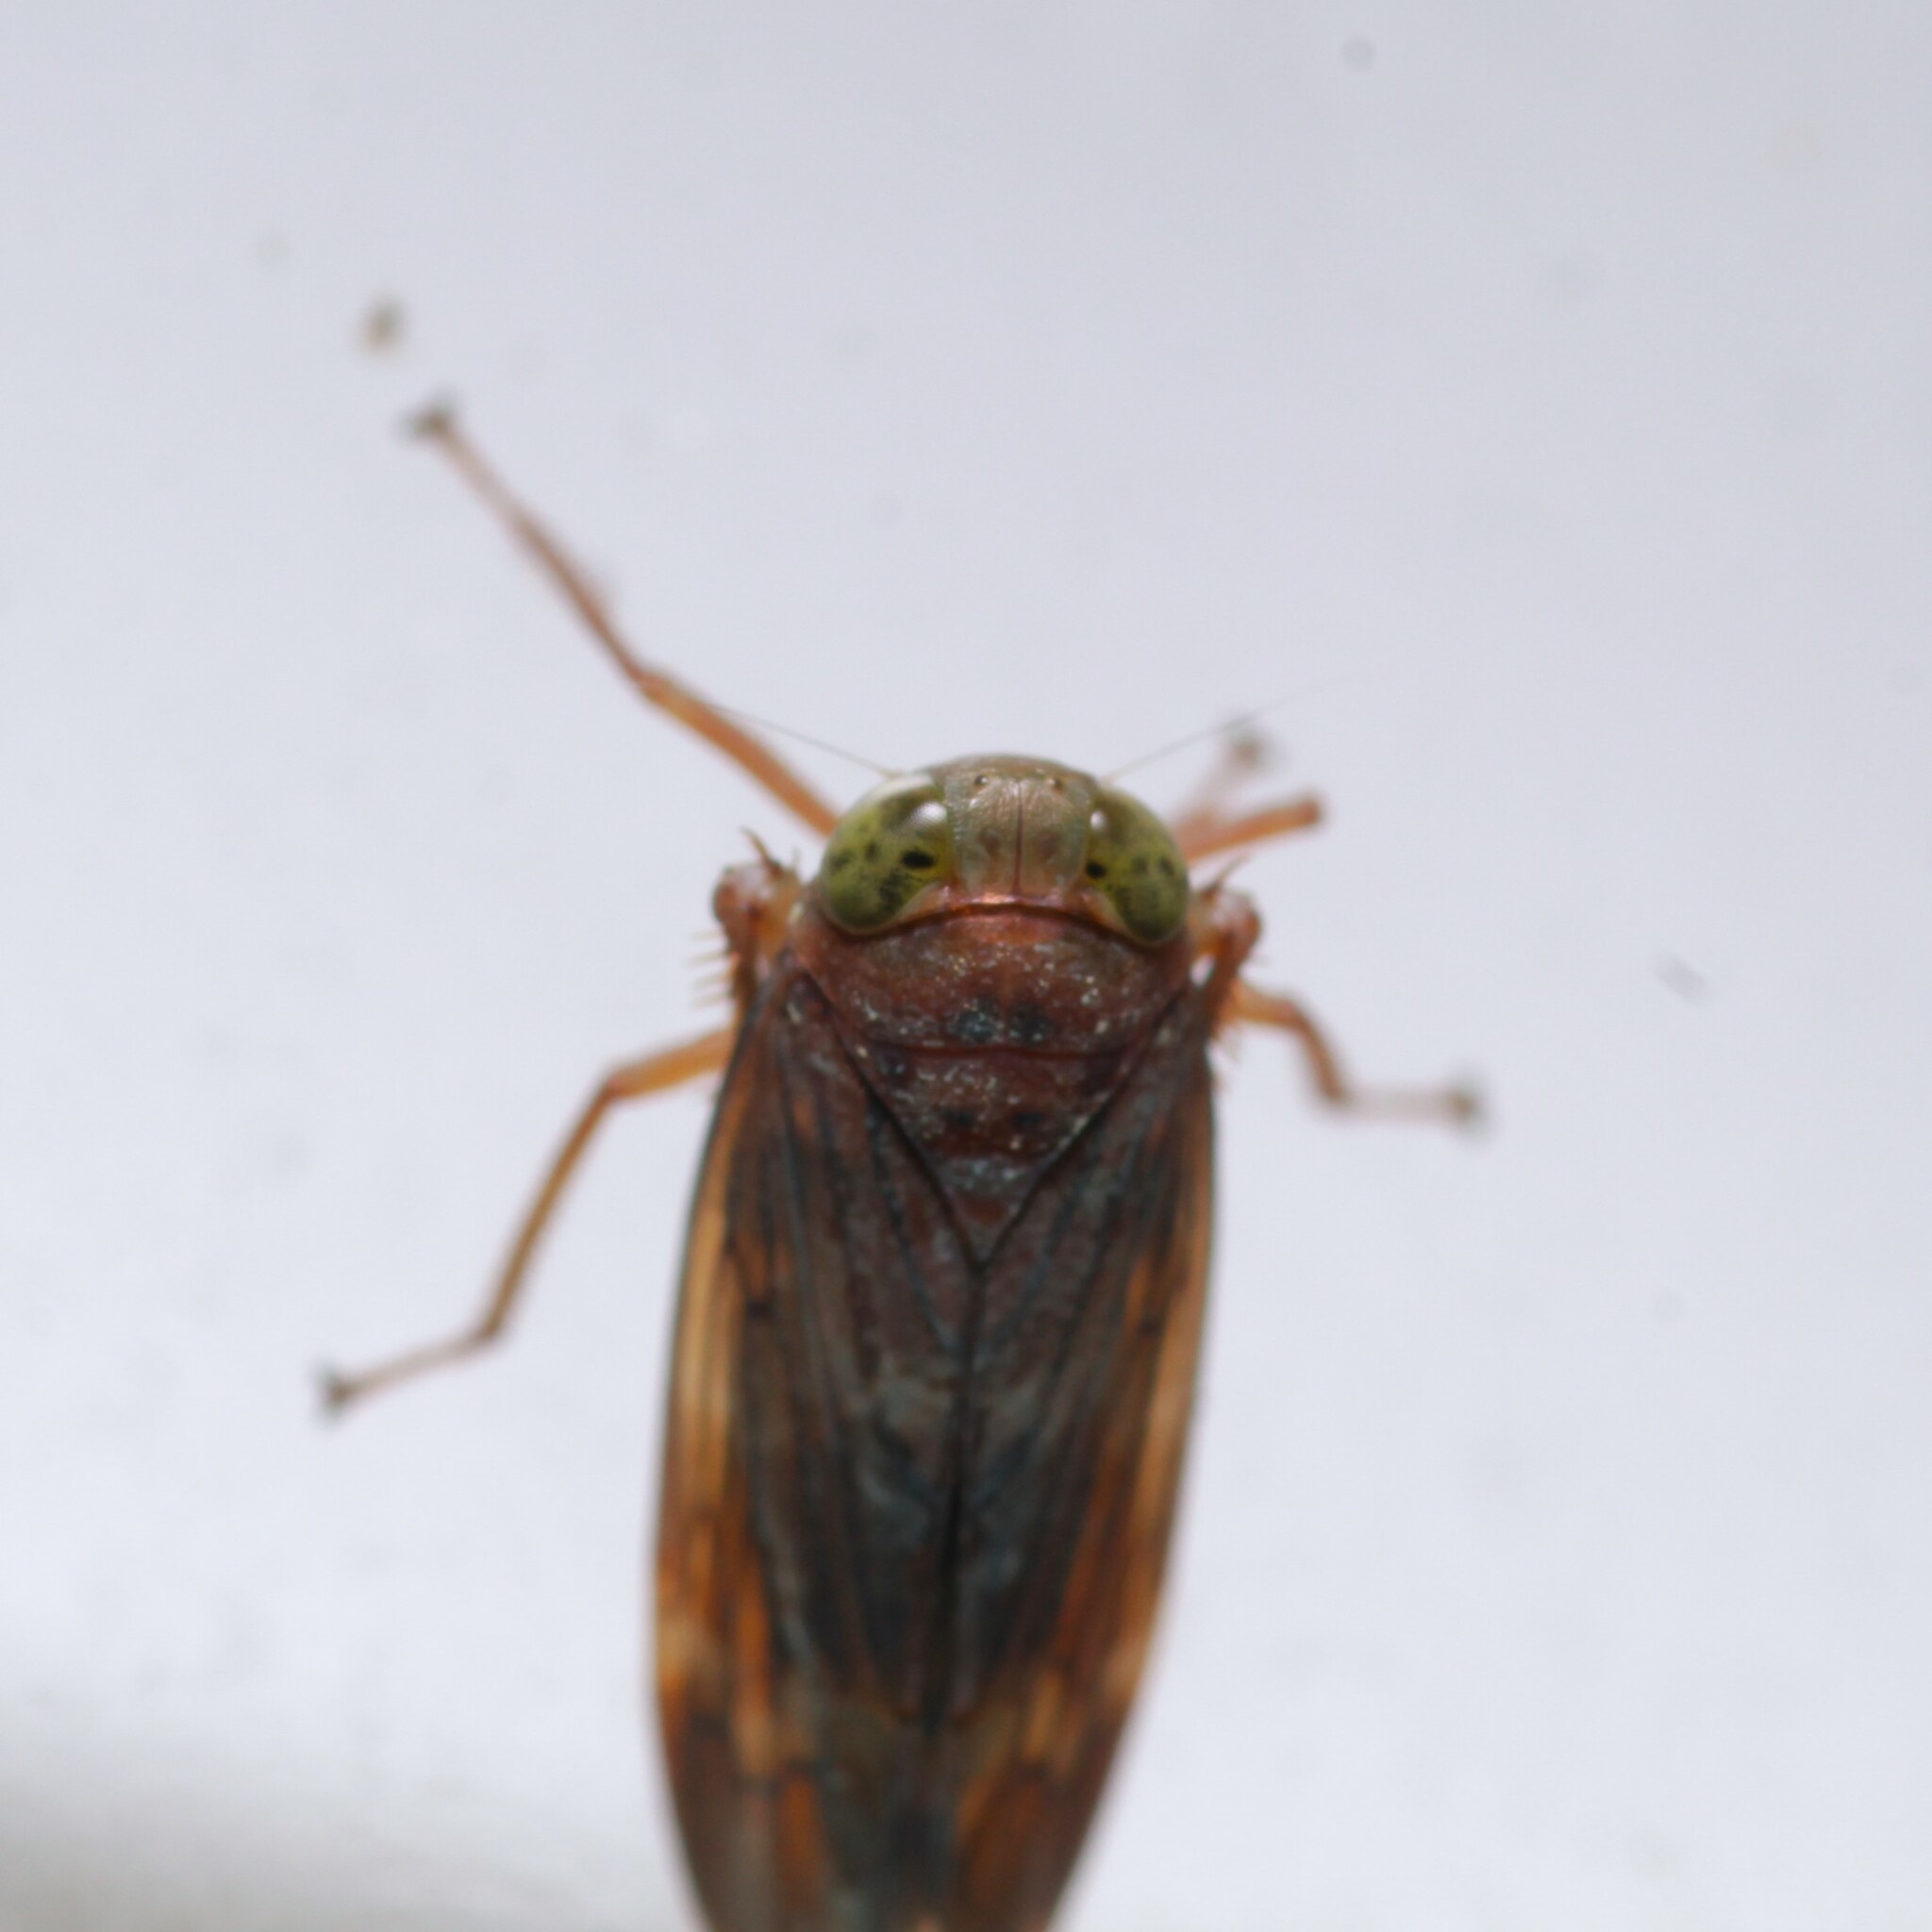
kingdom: Animalia
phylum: Arthropoda
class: Insecta
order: Hemiptera
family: Cicadellidae
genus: Jikradia
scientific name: Jikradia olitoria
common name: Coppery leafhopper
